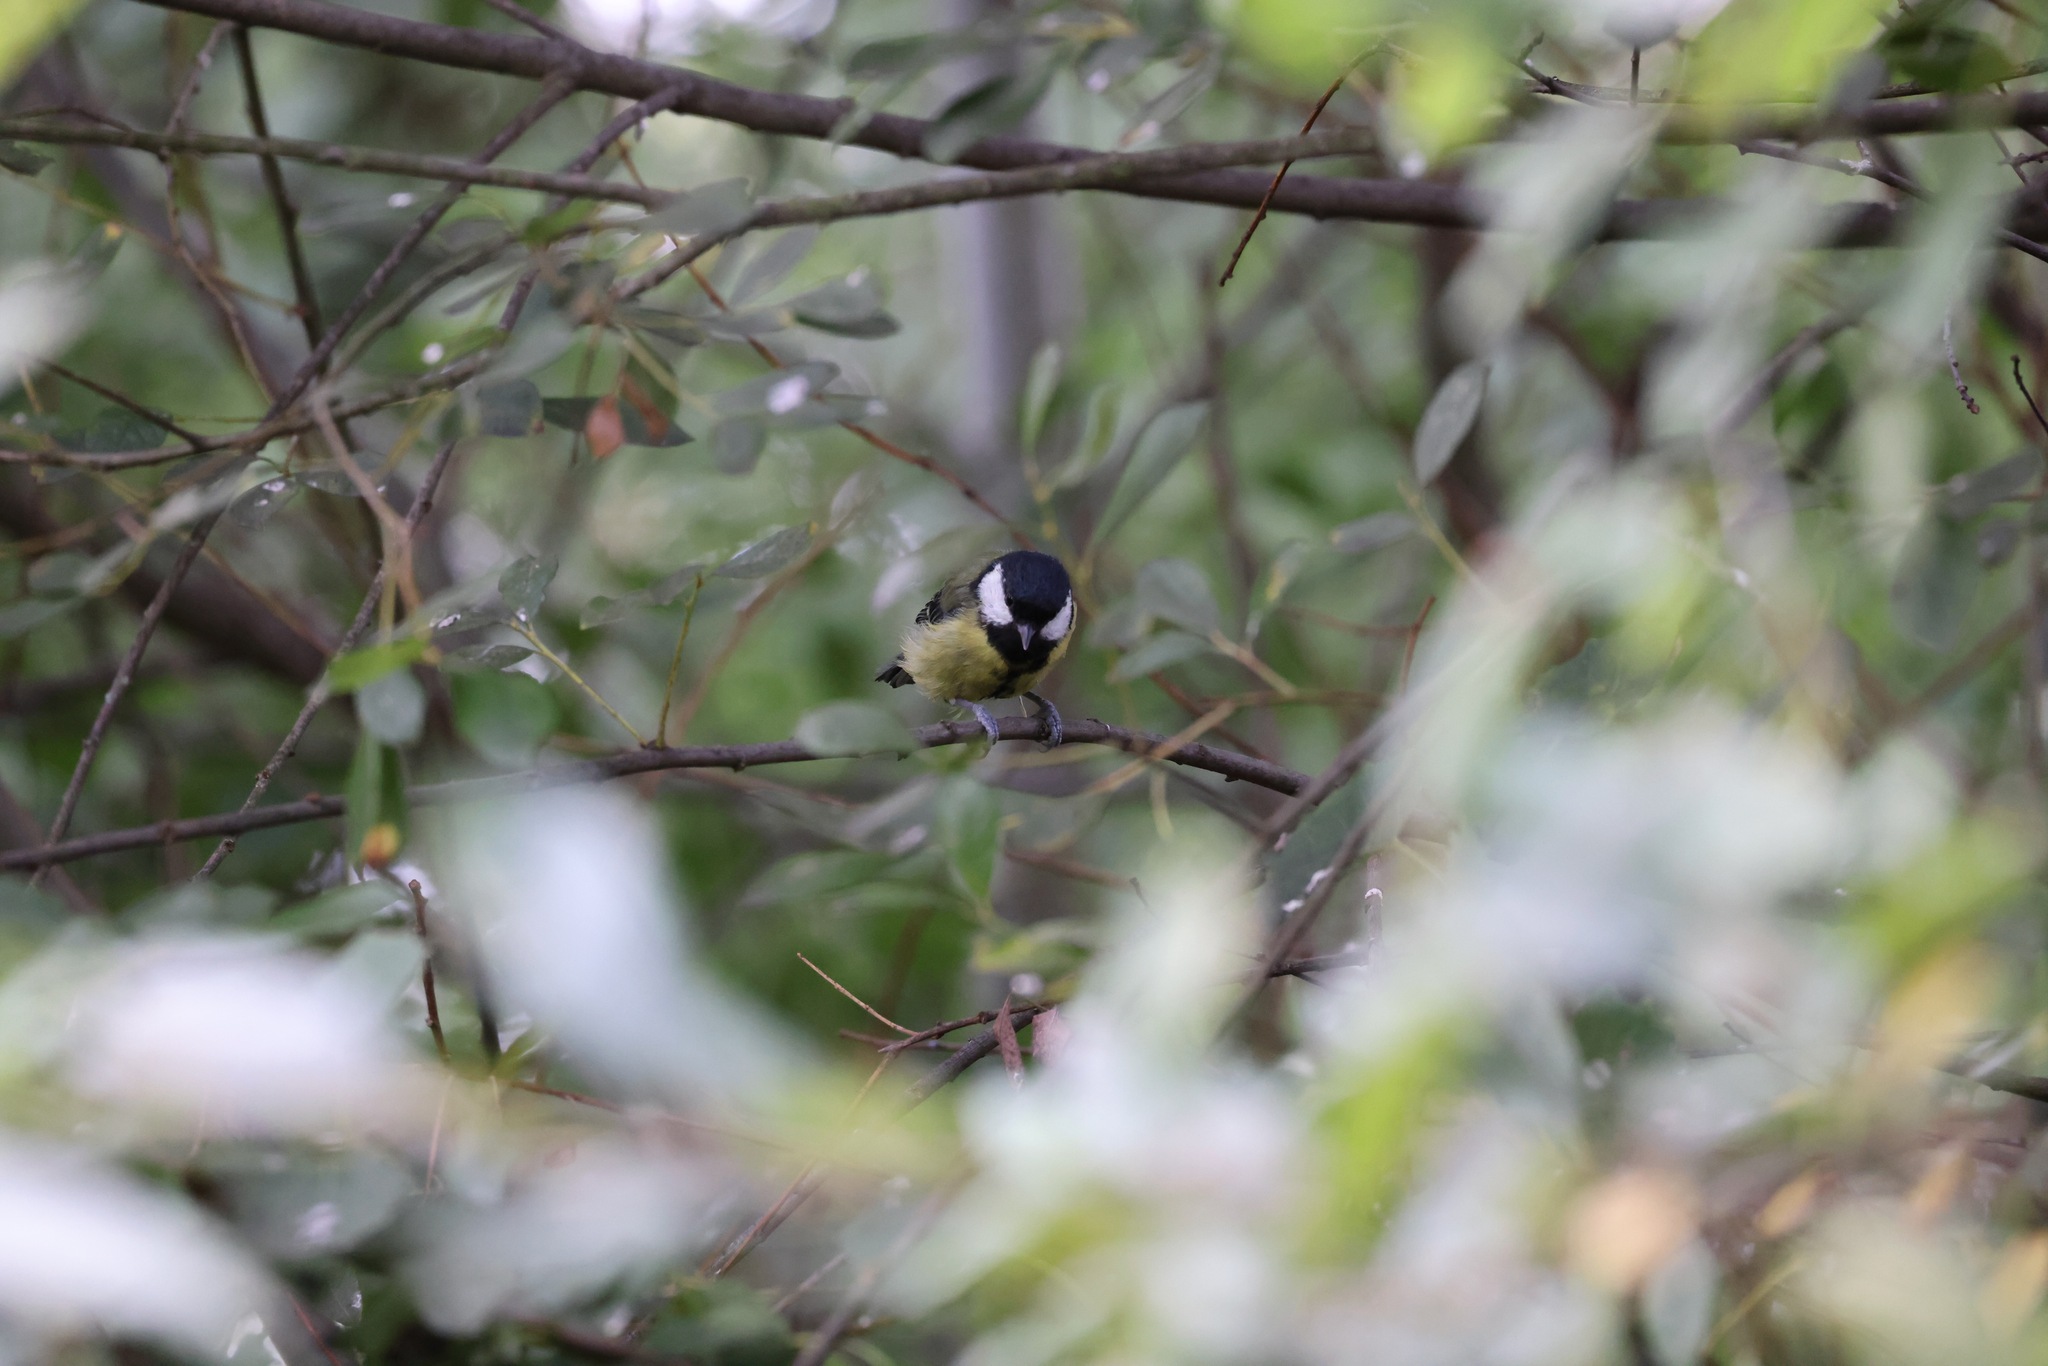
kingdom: Animalia
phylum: Chordata
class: Aves
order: Passeriformes
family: Paridae
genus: Parus
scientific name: Parus major
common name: Great tit
